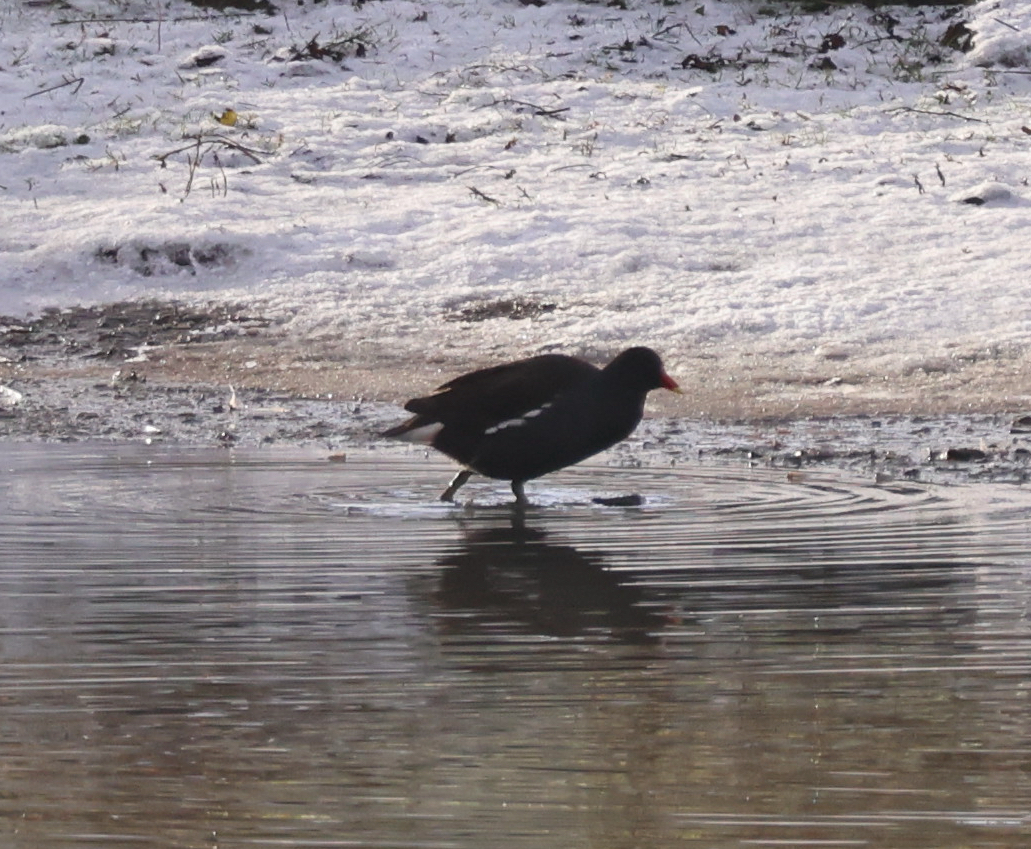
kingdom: Animalia
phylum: Chordata
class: Aves
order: Gruiformes
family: Rallidae
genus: Gallinula
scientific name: Gallinula chloropus
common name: Common moorhen
